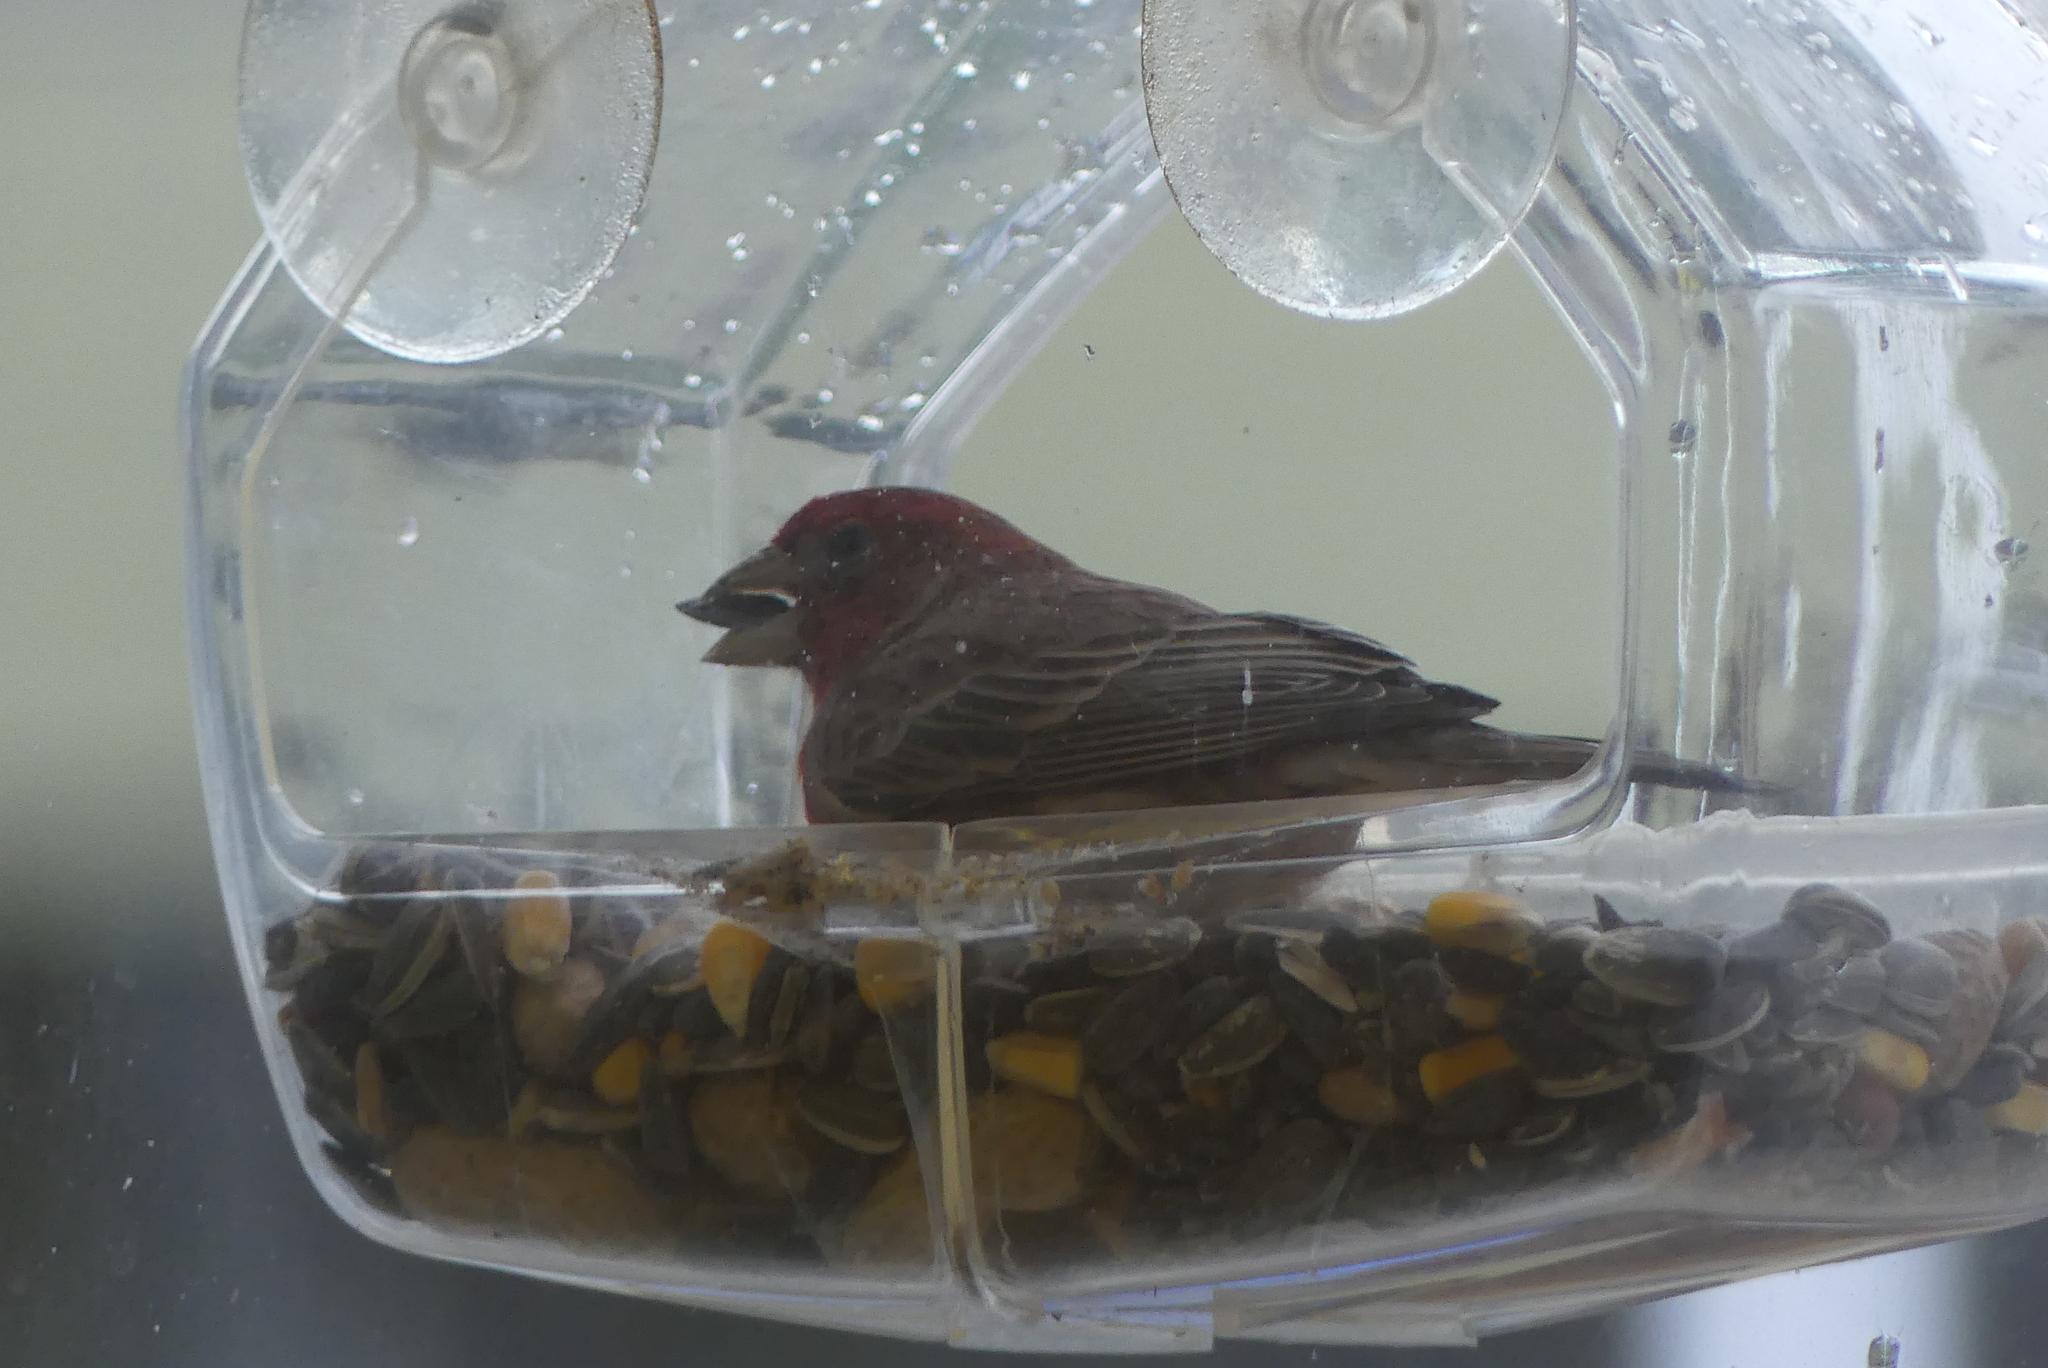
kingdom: Animalia
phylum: Chordata
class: Aves
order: Passeriformes
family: Fringillidae
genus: Haemorhous
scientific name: Haemorhous mexicanus
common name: House finch
